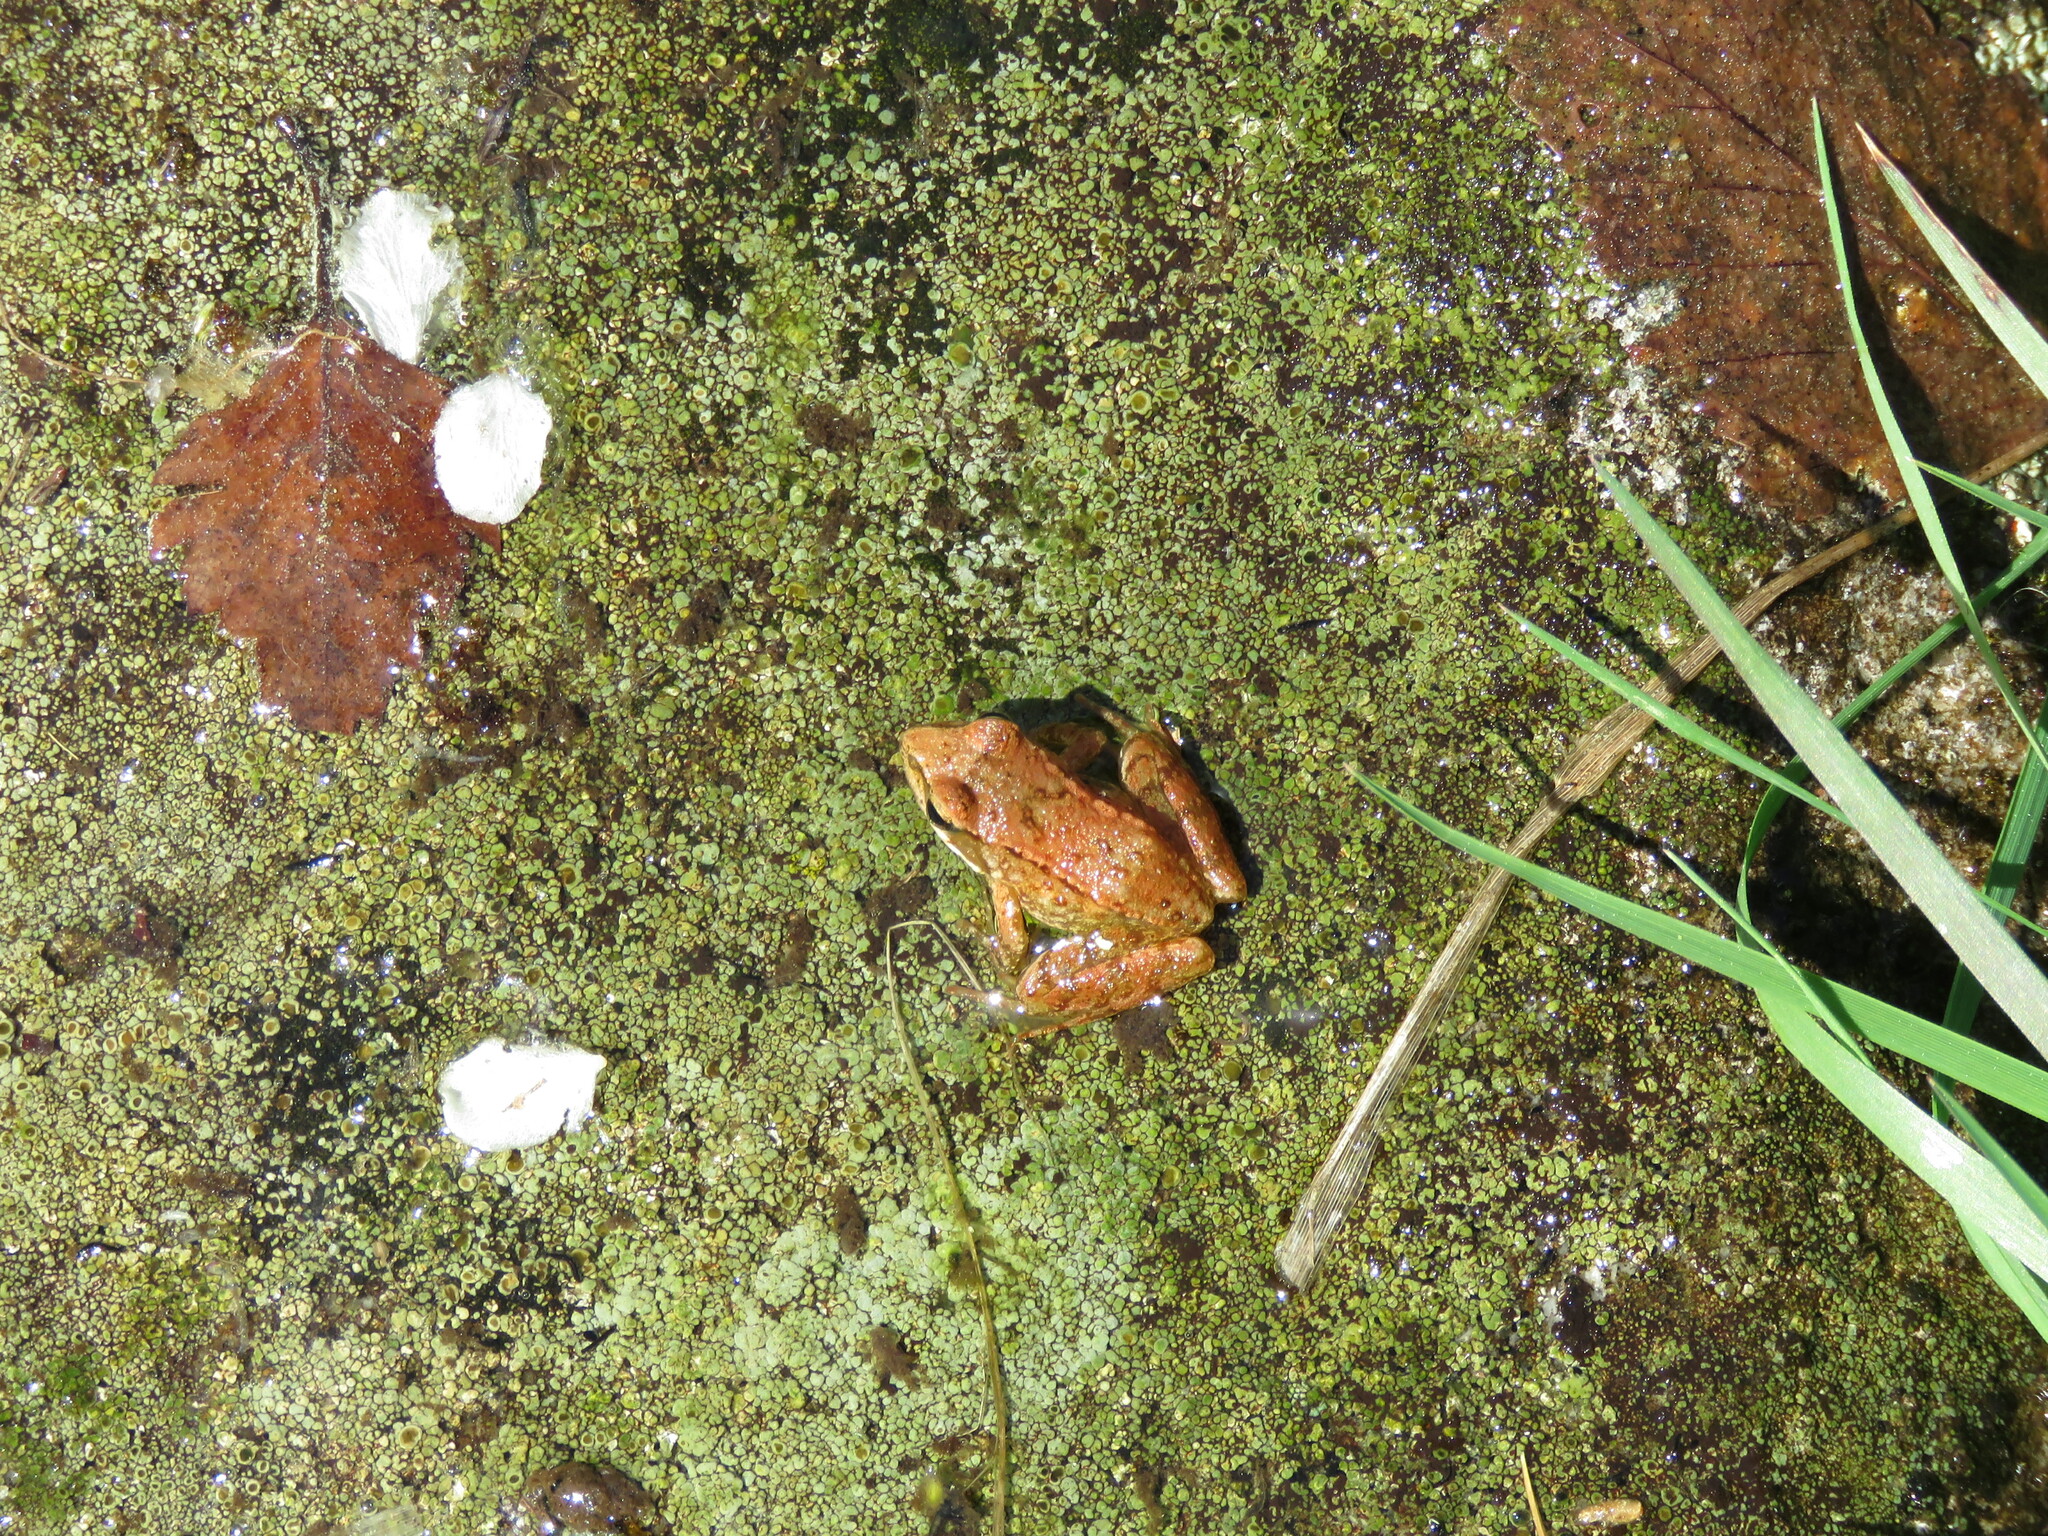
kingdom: Animalia
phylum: Chordata
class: Amphibia
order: Anura
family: Ranidae
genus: Rana
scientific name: Rana iberica
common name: Iberian frog
